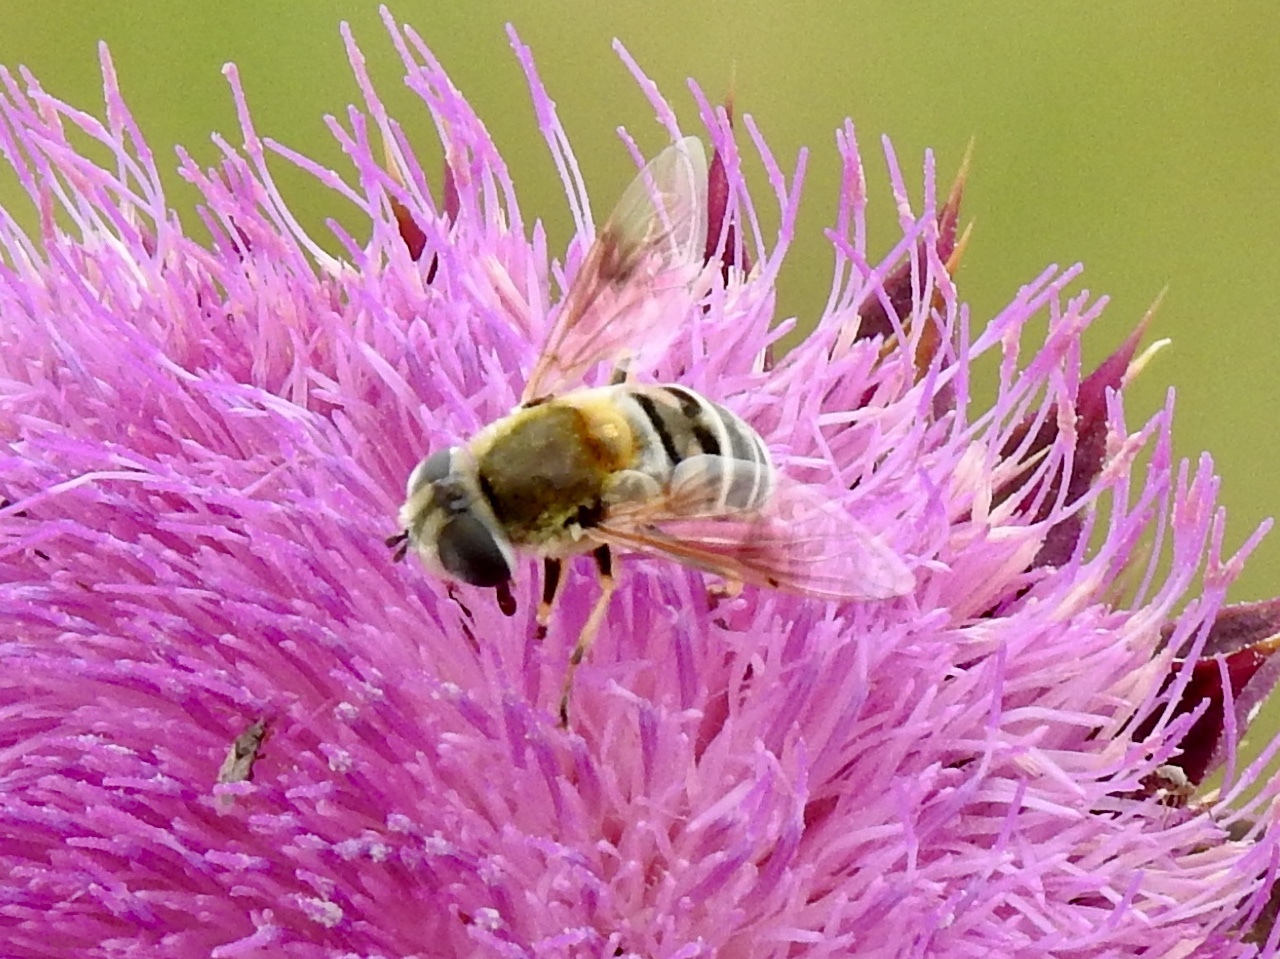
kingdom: Animalia
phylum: Arthropoda
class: Insecta
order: Diptera
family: Syrphidae
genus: Eristalis
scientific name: Eristalis stipator
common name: Yellow-shouldered drone fly
